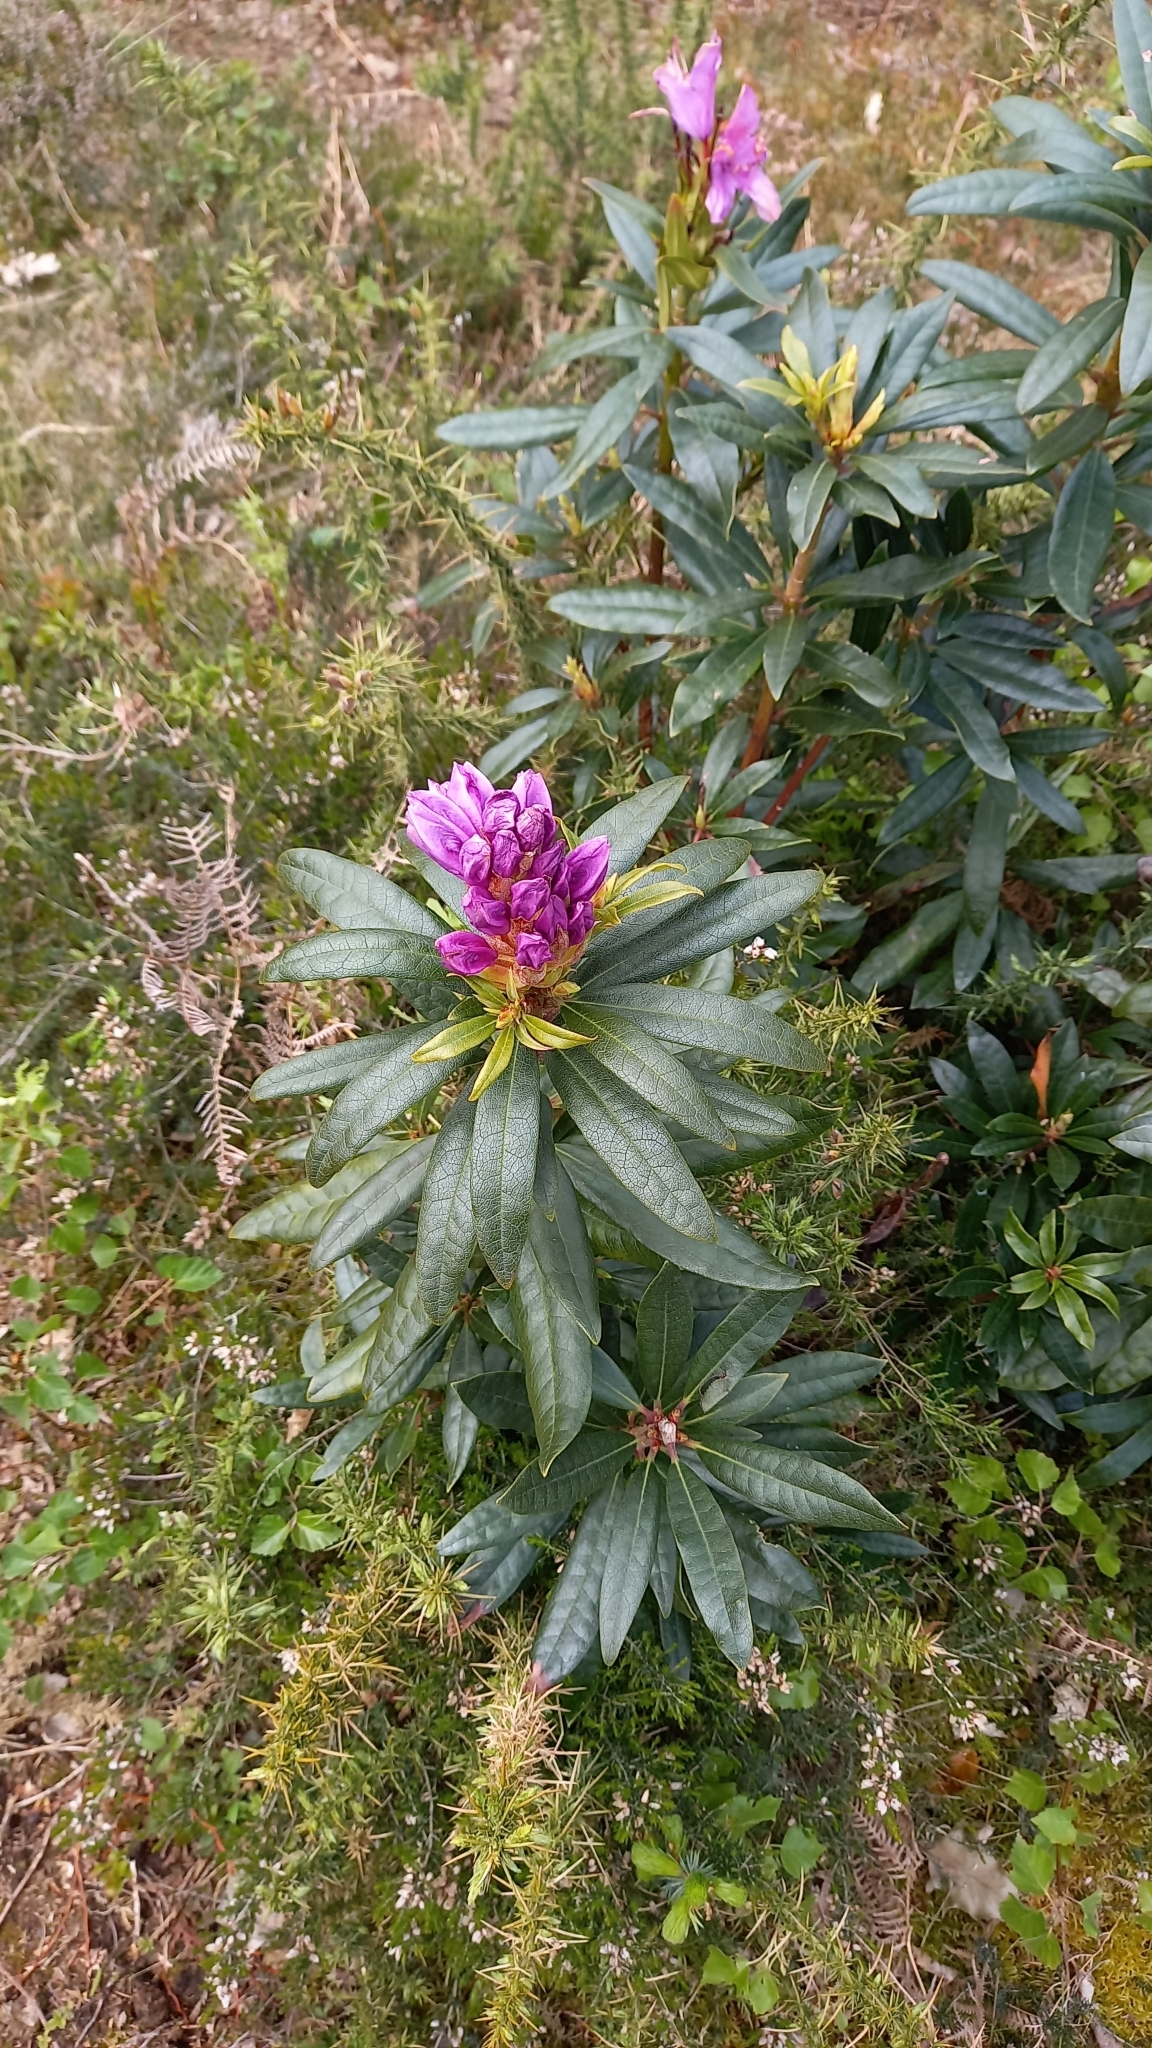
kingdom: Plantae
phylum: Tracheophyta
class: Magnoliopsida
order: Ericales
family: Ericaceae
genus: Rhododendron
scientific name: Rhododendron ponticum
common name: Rhododendron
